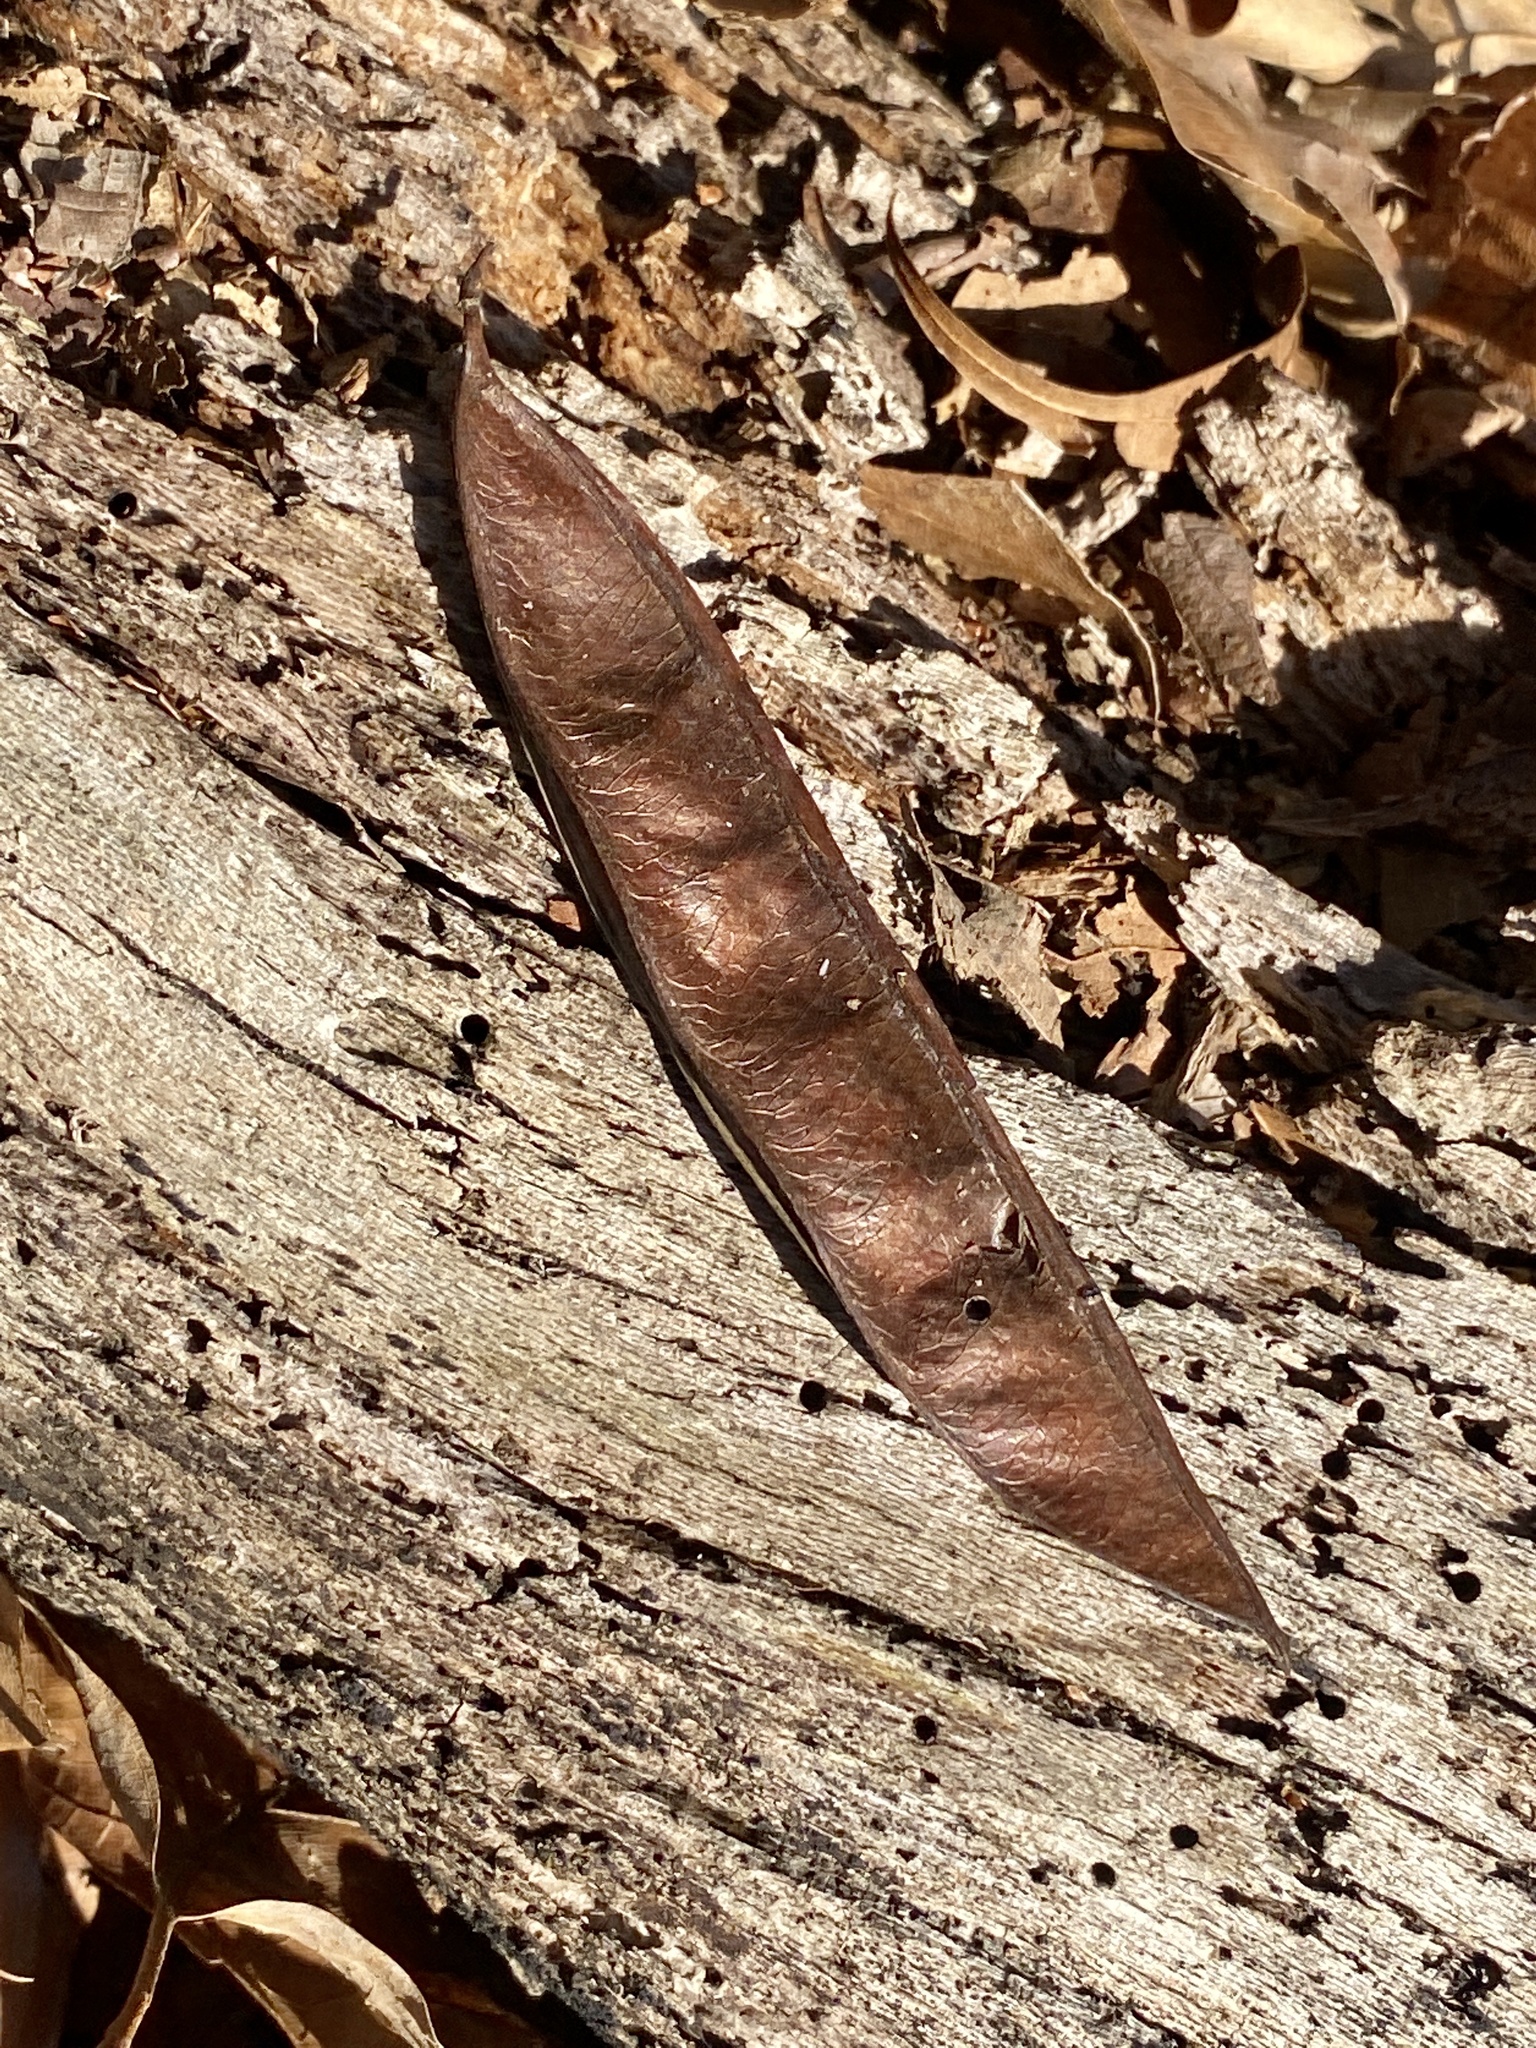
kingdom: Plantae
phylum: Tracheophyta
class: Magnoliopsida
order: Fabales
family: Fabaceae
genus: Robinia
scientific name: Robinia pseudoacacia
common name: Black locust
